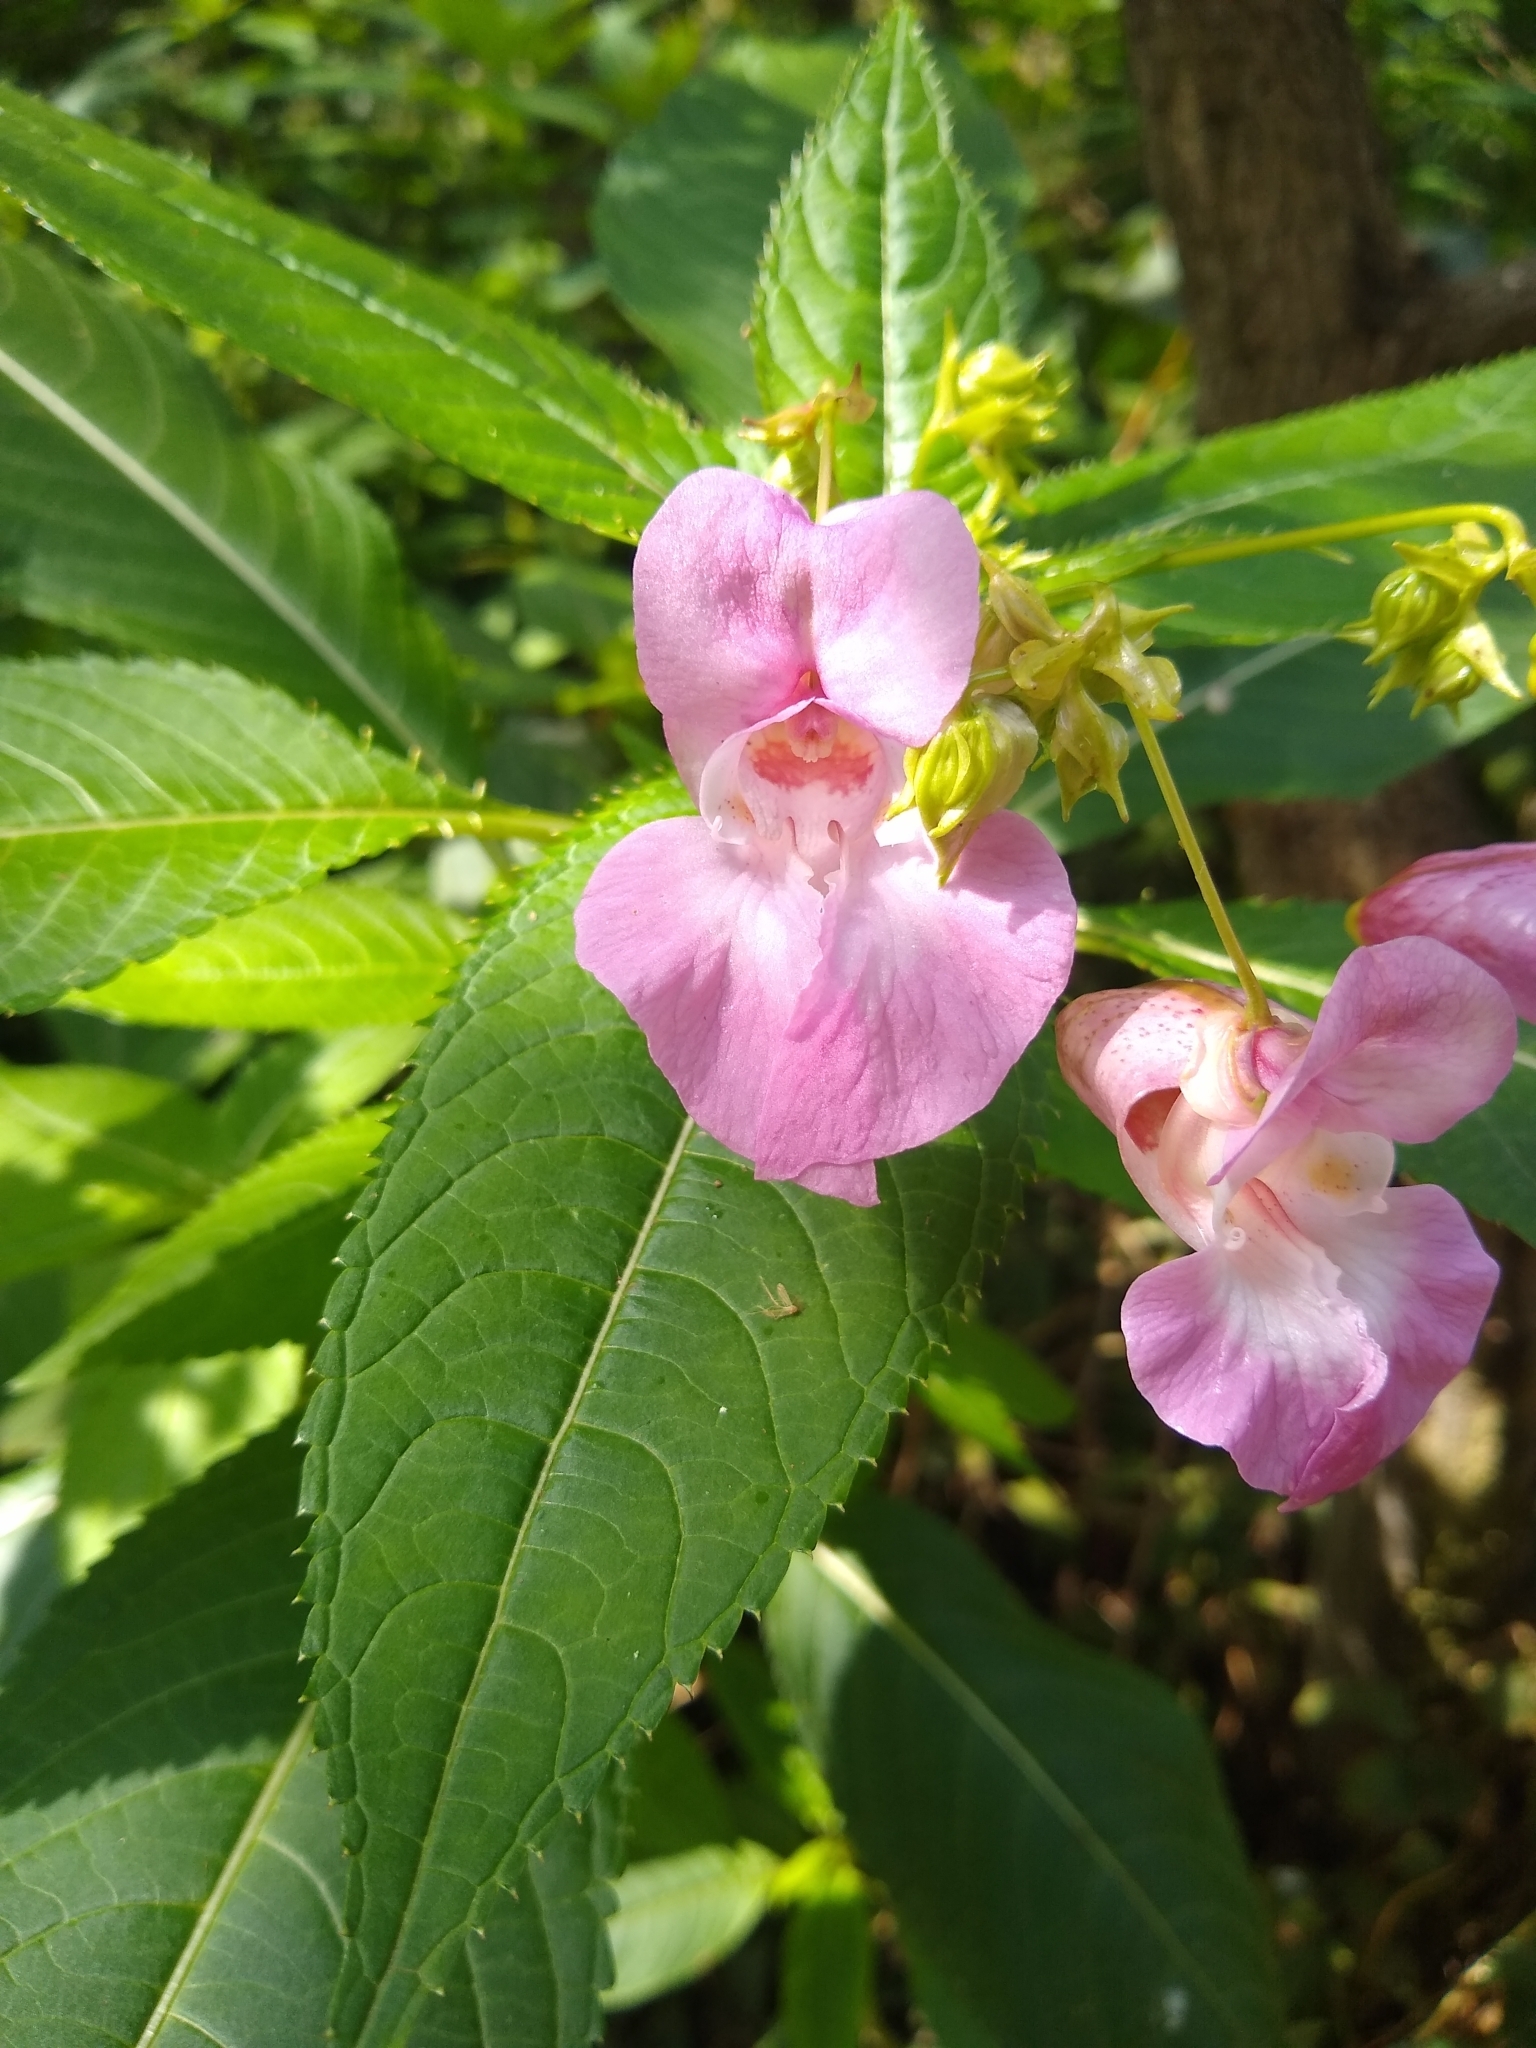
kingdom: Plantae
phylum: Tracheophyta
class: Magnoliopsida
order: Ericales
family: Balsaminaceae
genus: Impatiens
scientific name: Impatiens glandulifera
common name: Himalayan balsam
